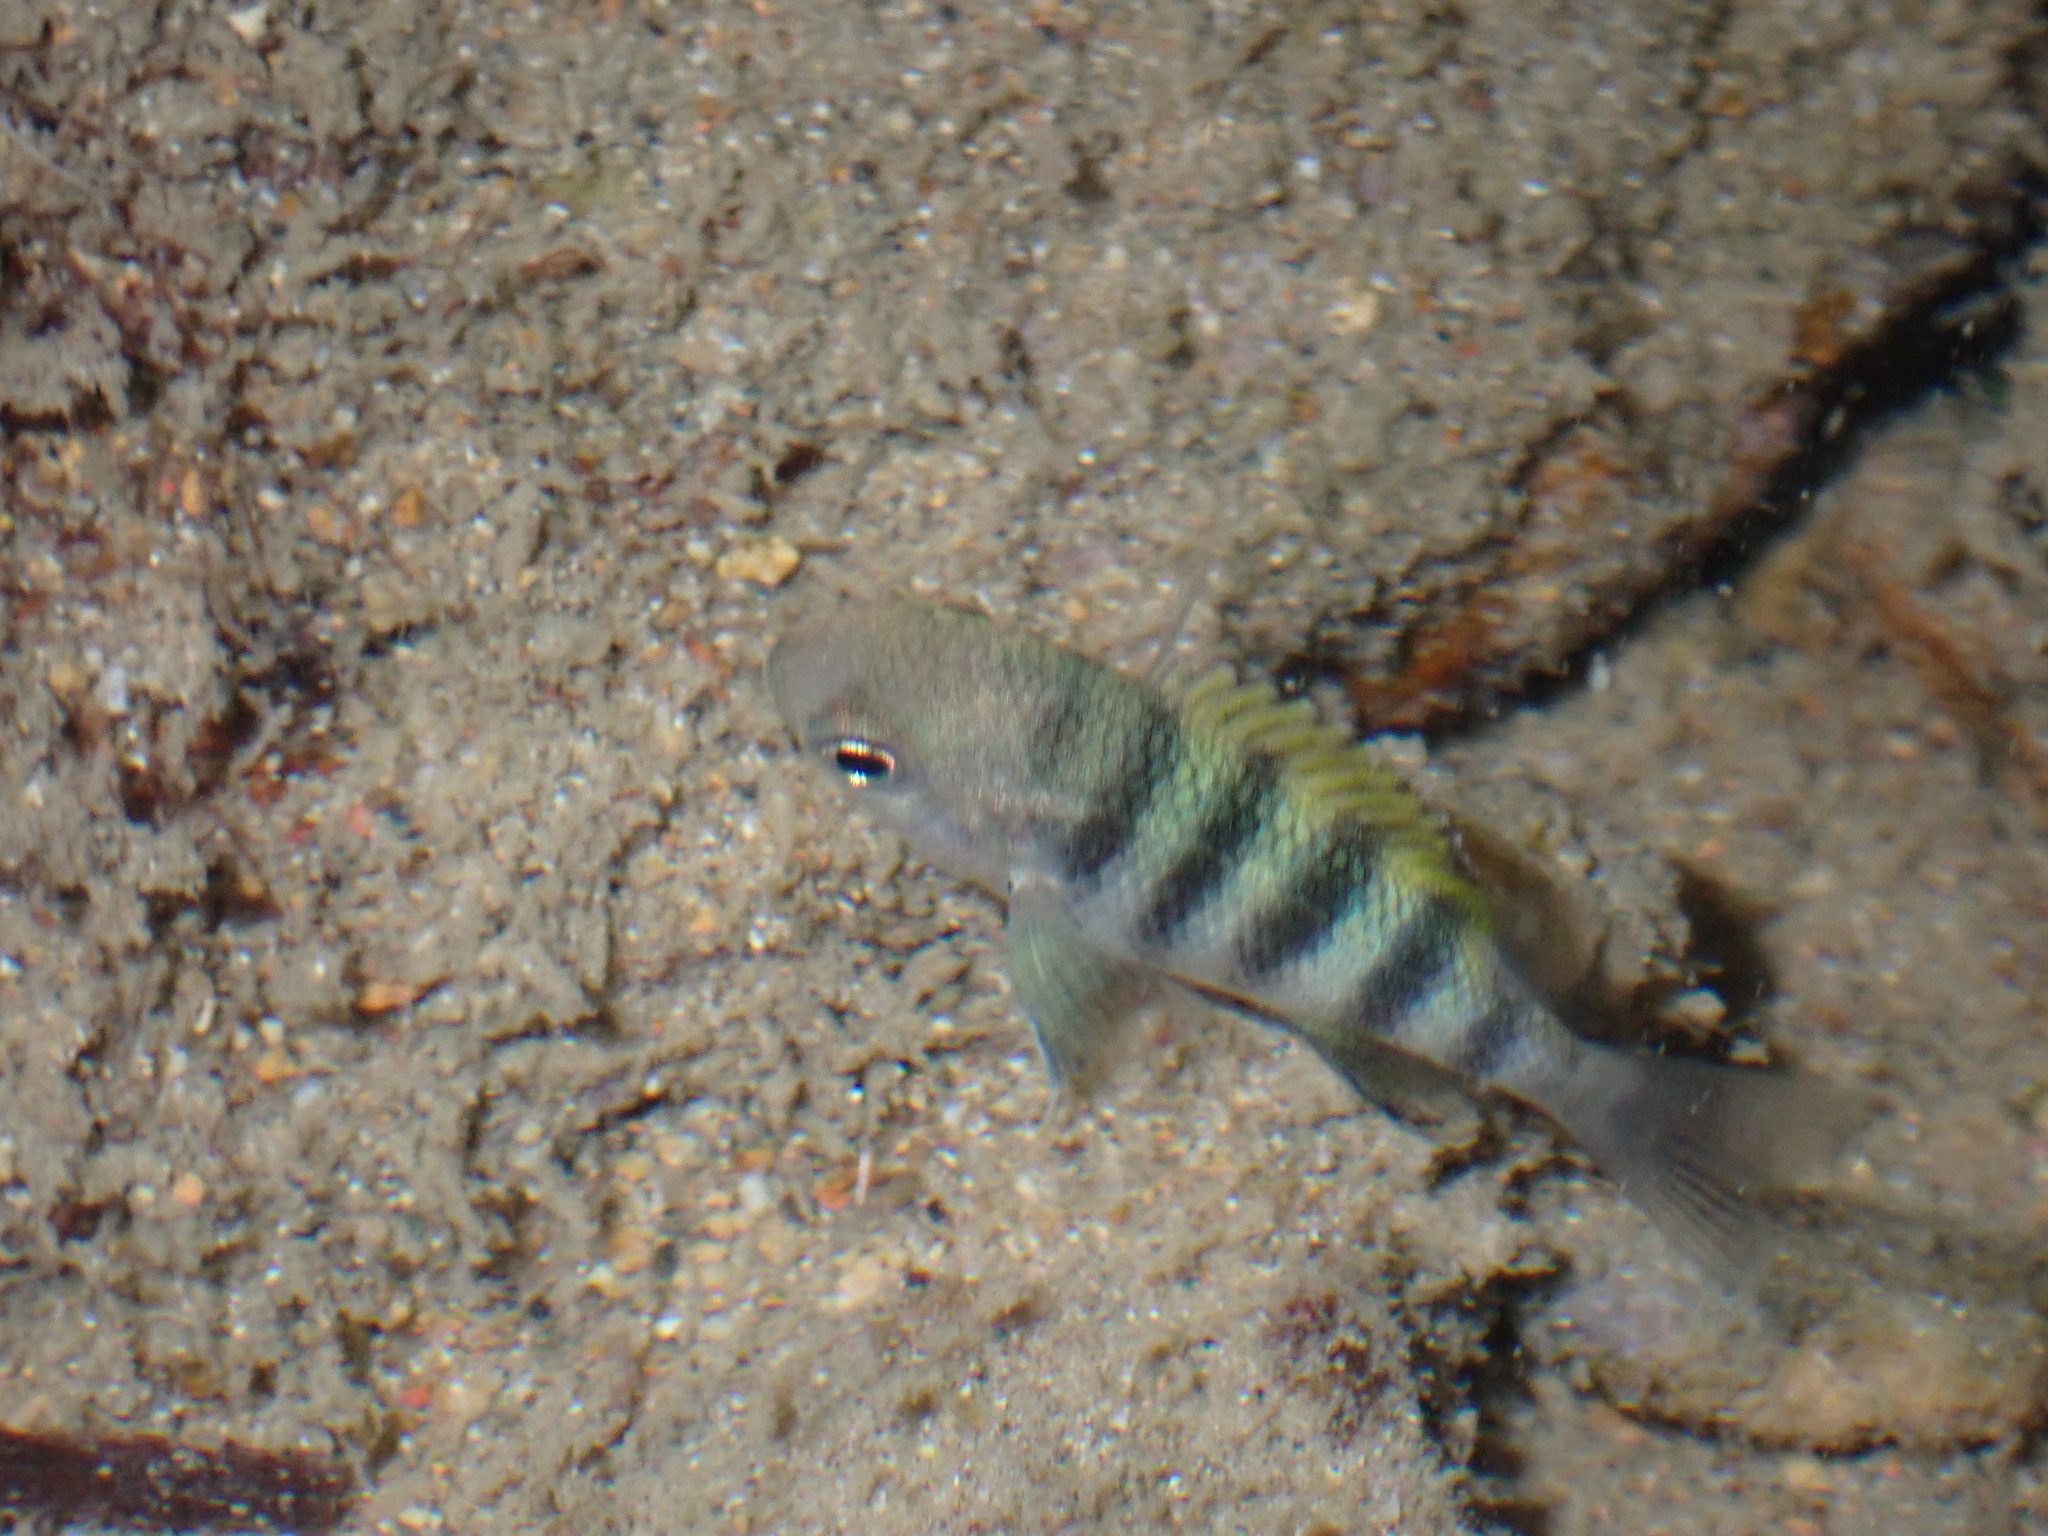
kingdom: Animalia
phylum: Chordata
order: Perciformes
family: Pomacentridae
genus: Abudefduf
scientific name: Abudefduf vaigiensis
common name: Indo-pacific sergeant
